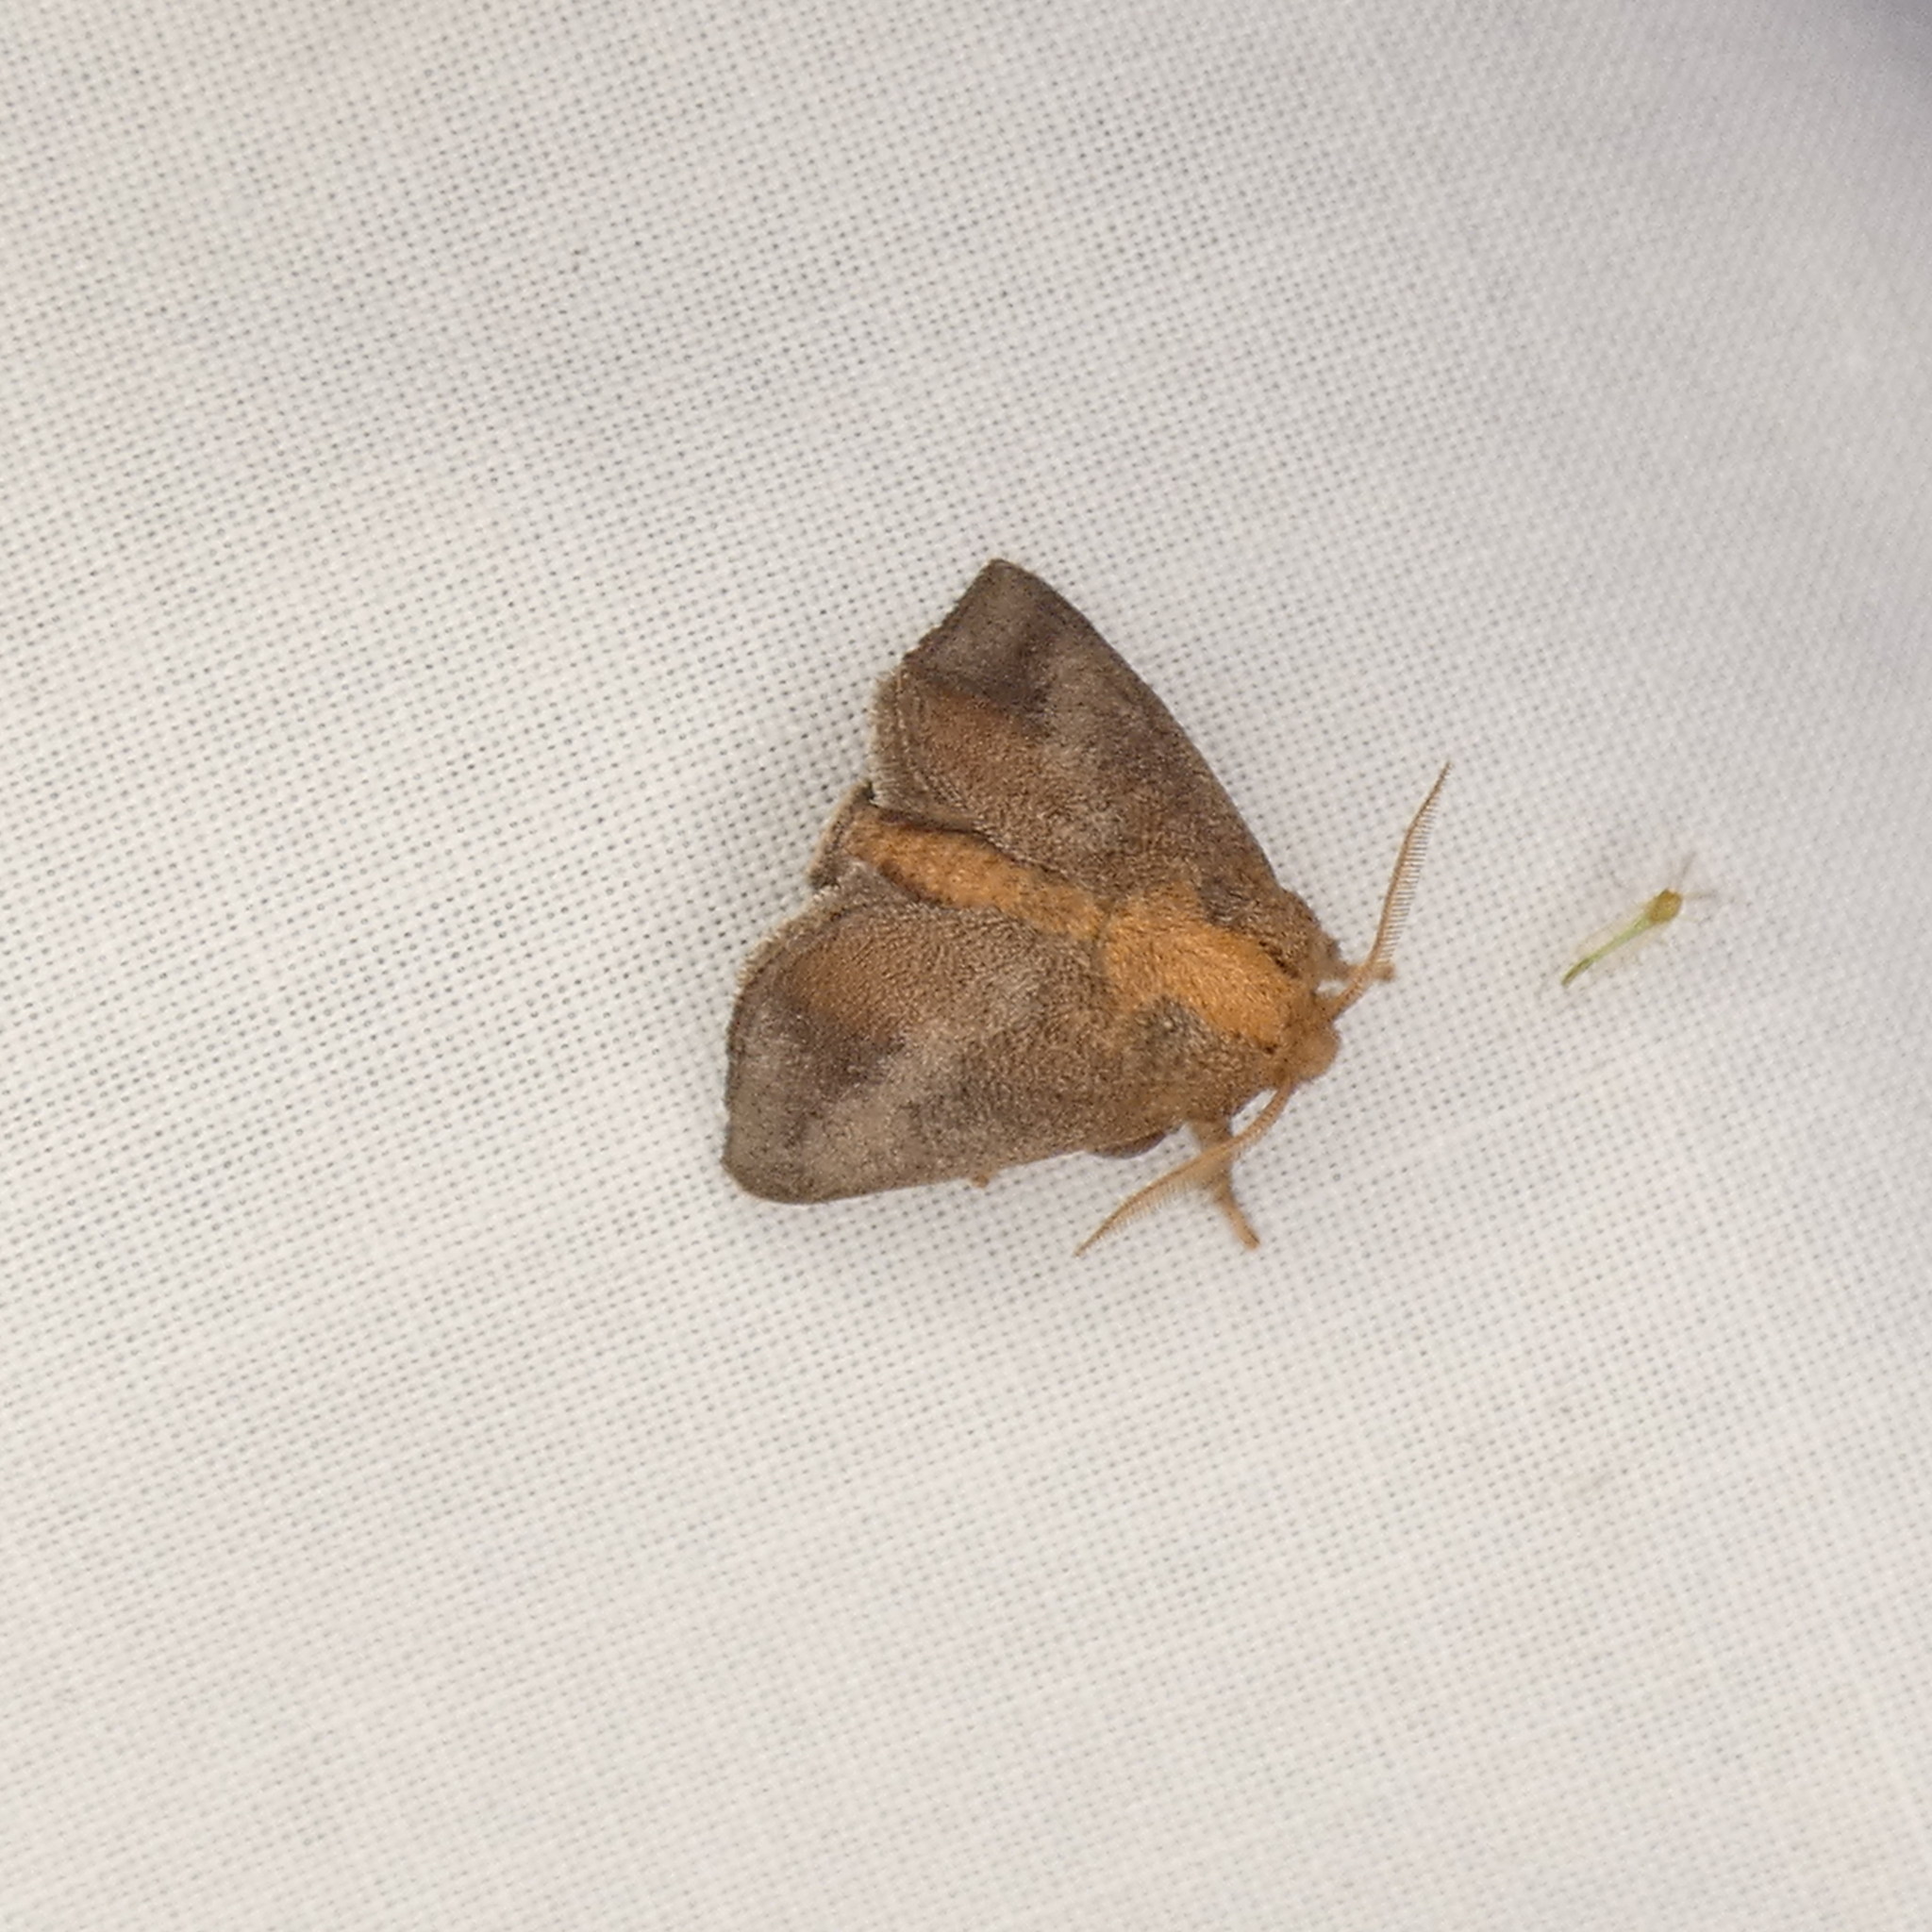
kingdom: Animalia
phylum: Arthropoda
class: Insecta
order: Lepidoptera
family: Limacodidae
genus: Isa
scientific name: Isa textula
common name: Crowned slug moth
